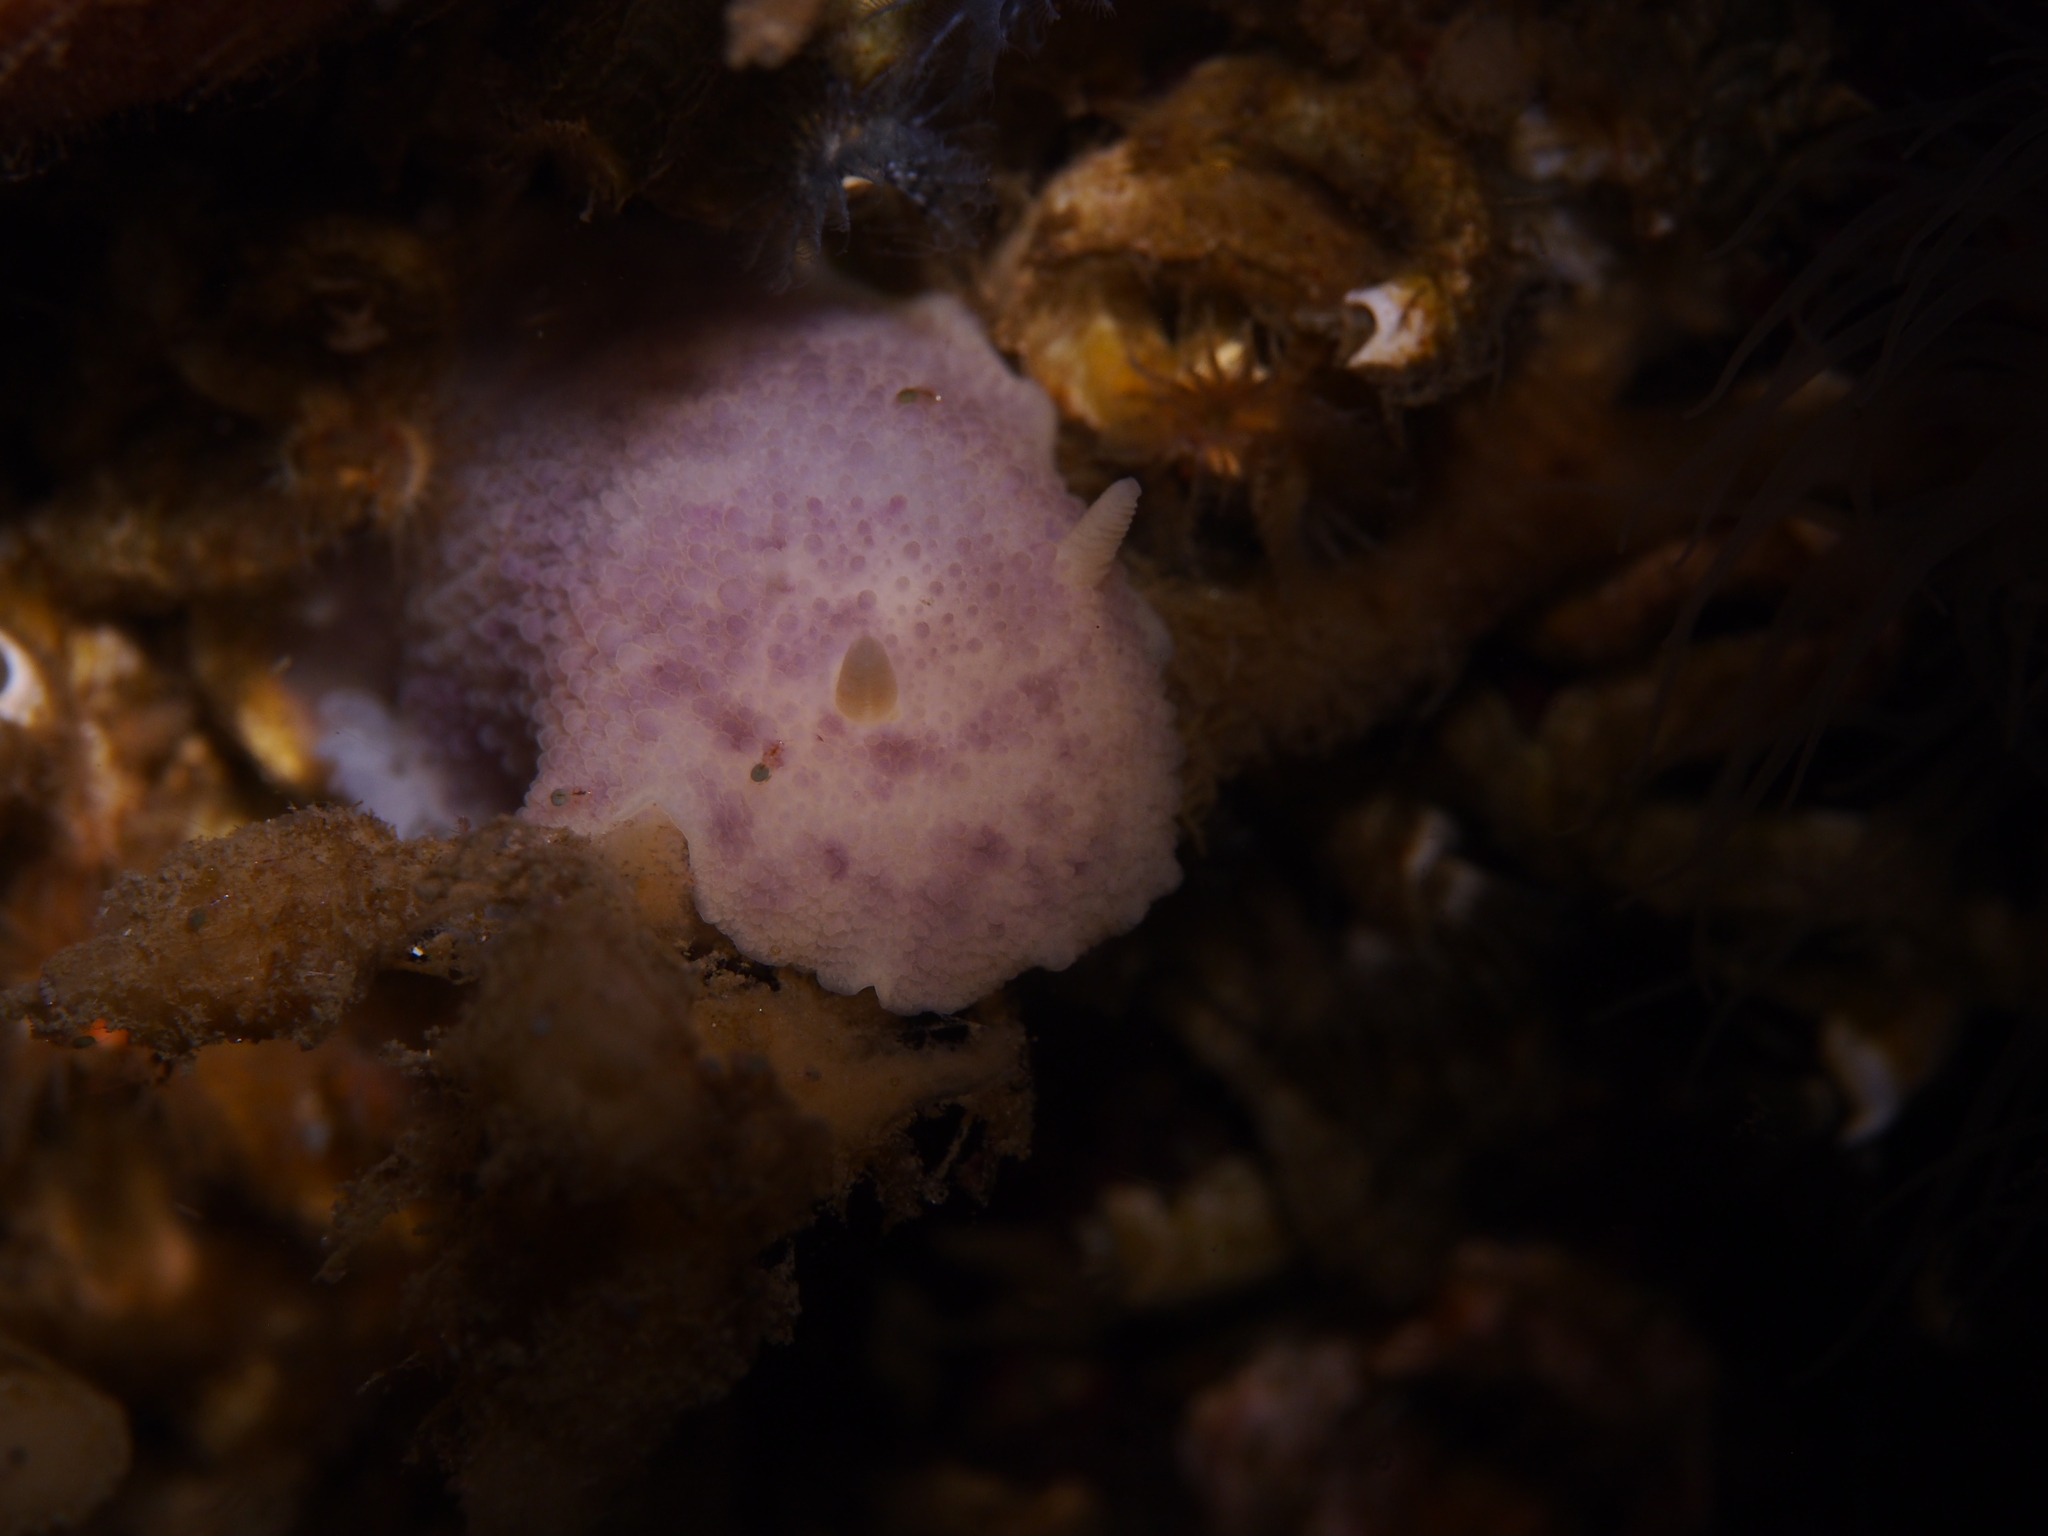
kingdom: Animalia
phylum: Mollusca
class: Gastropoda
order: Nudibranchia
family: Dorididae
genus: Doris
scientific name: Doris pseudoargus
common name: Sea lemon
